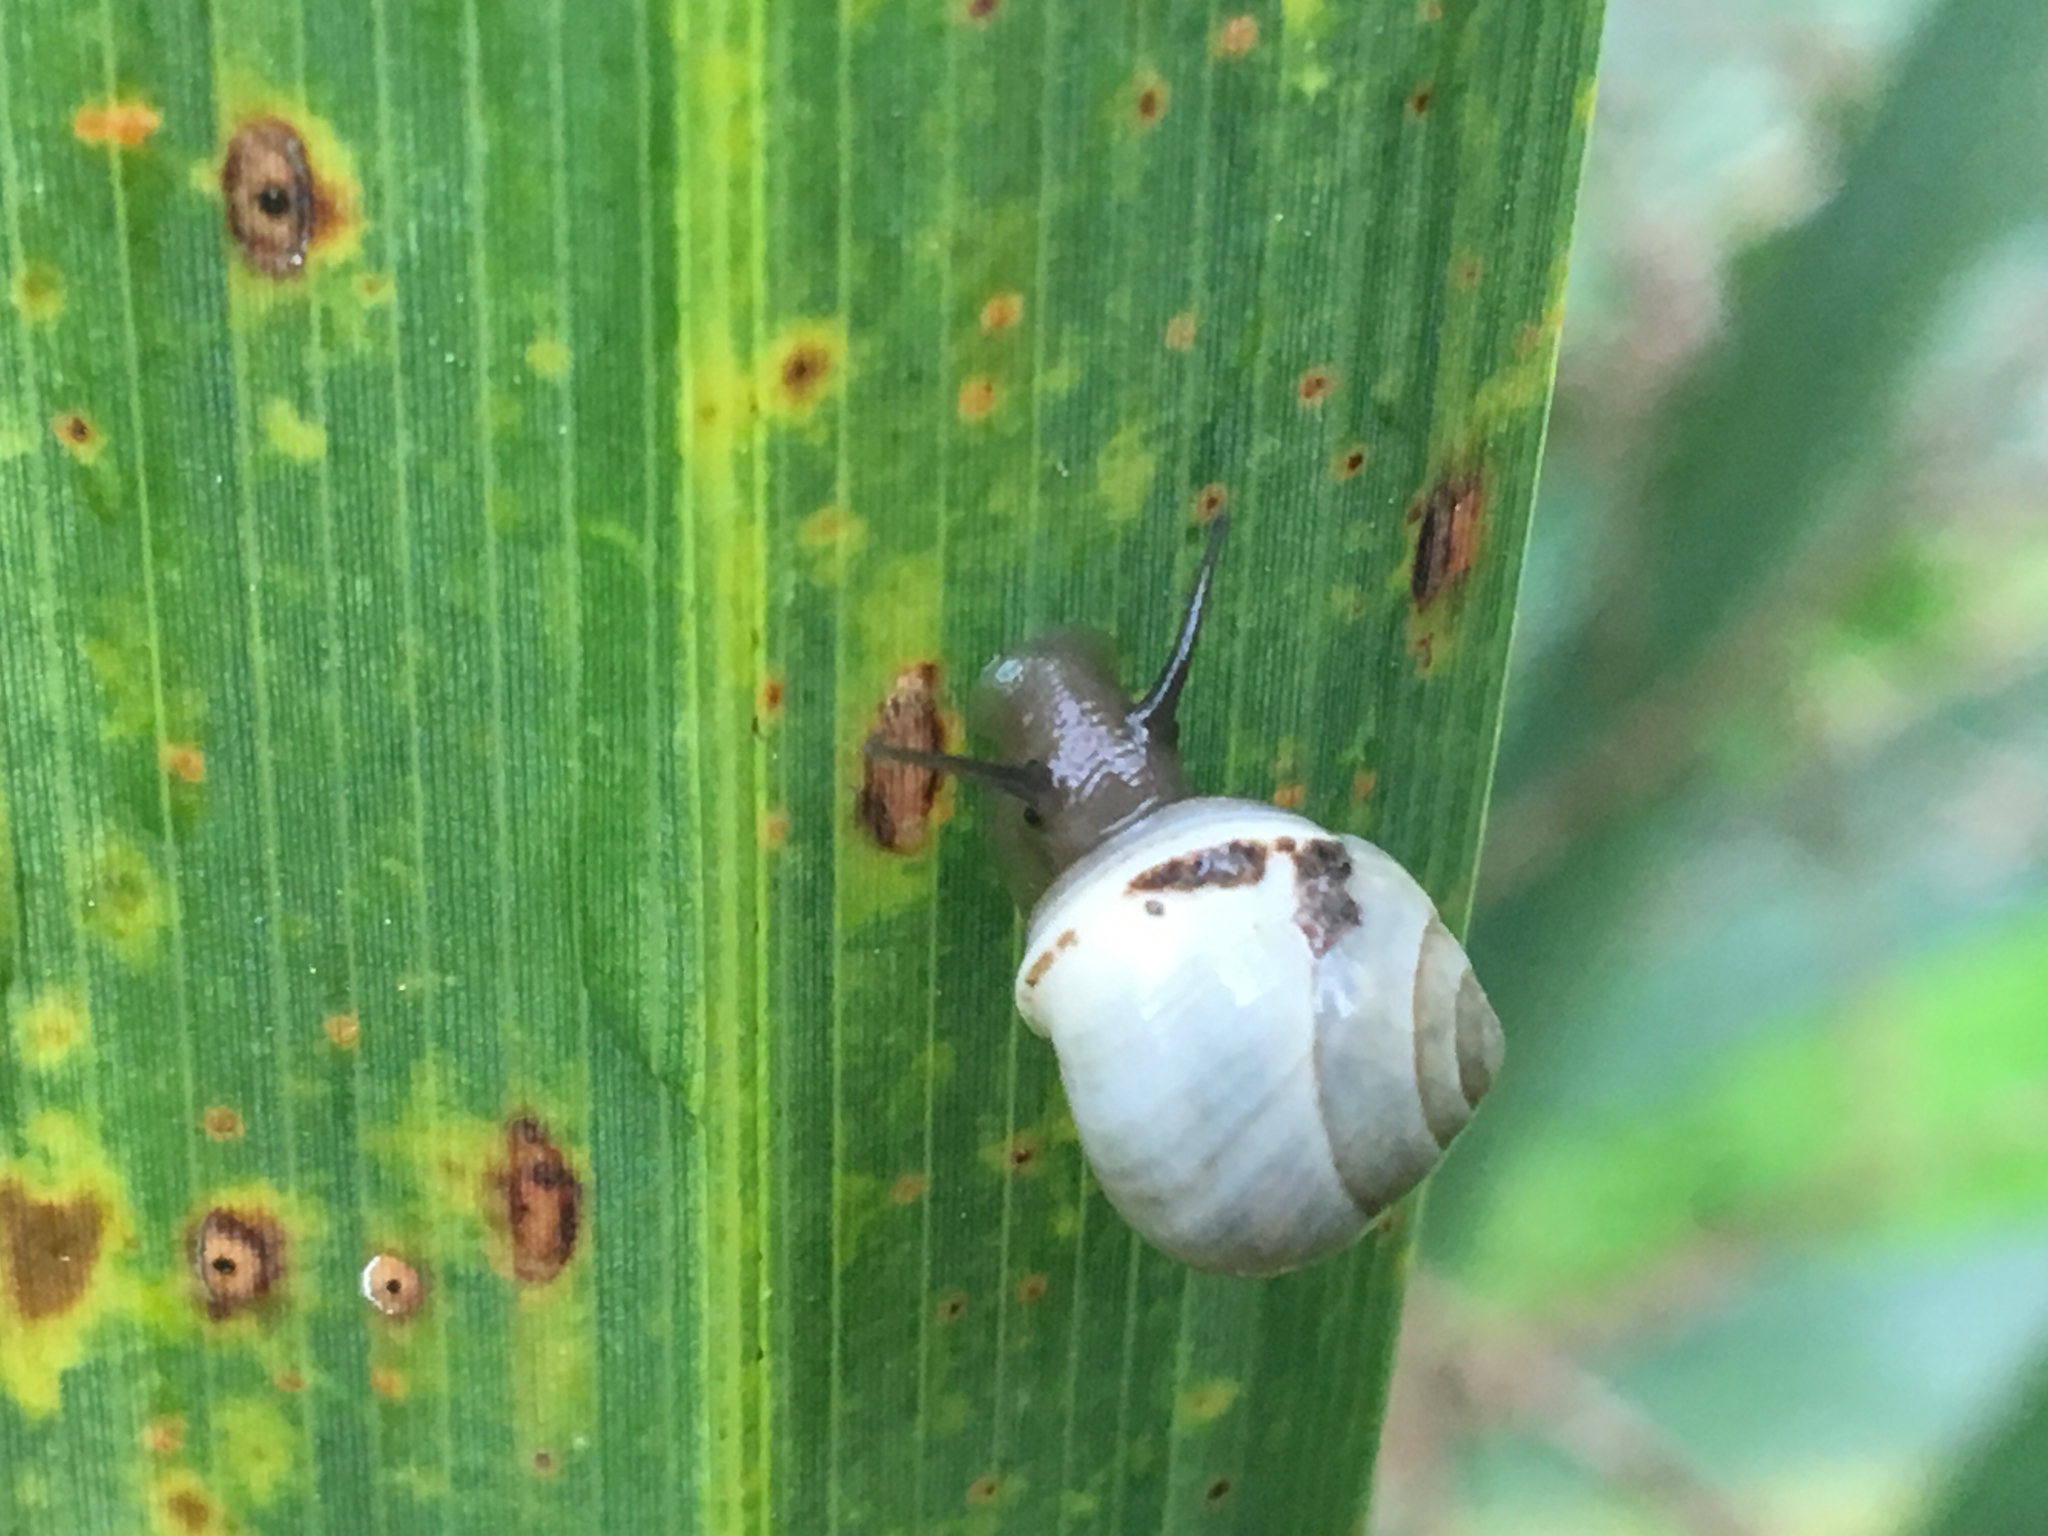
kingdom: Animalia
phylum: Mollusca
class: Gastropoda
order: Cycloneritida
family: Helicinidae
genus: Helicina
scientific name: Helicina orbiculata
